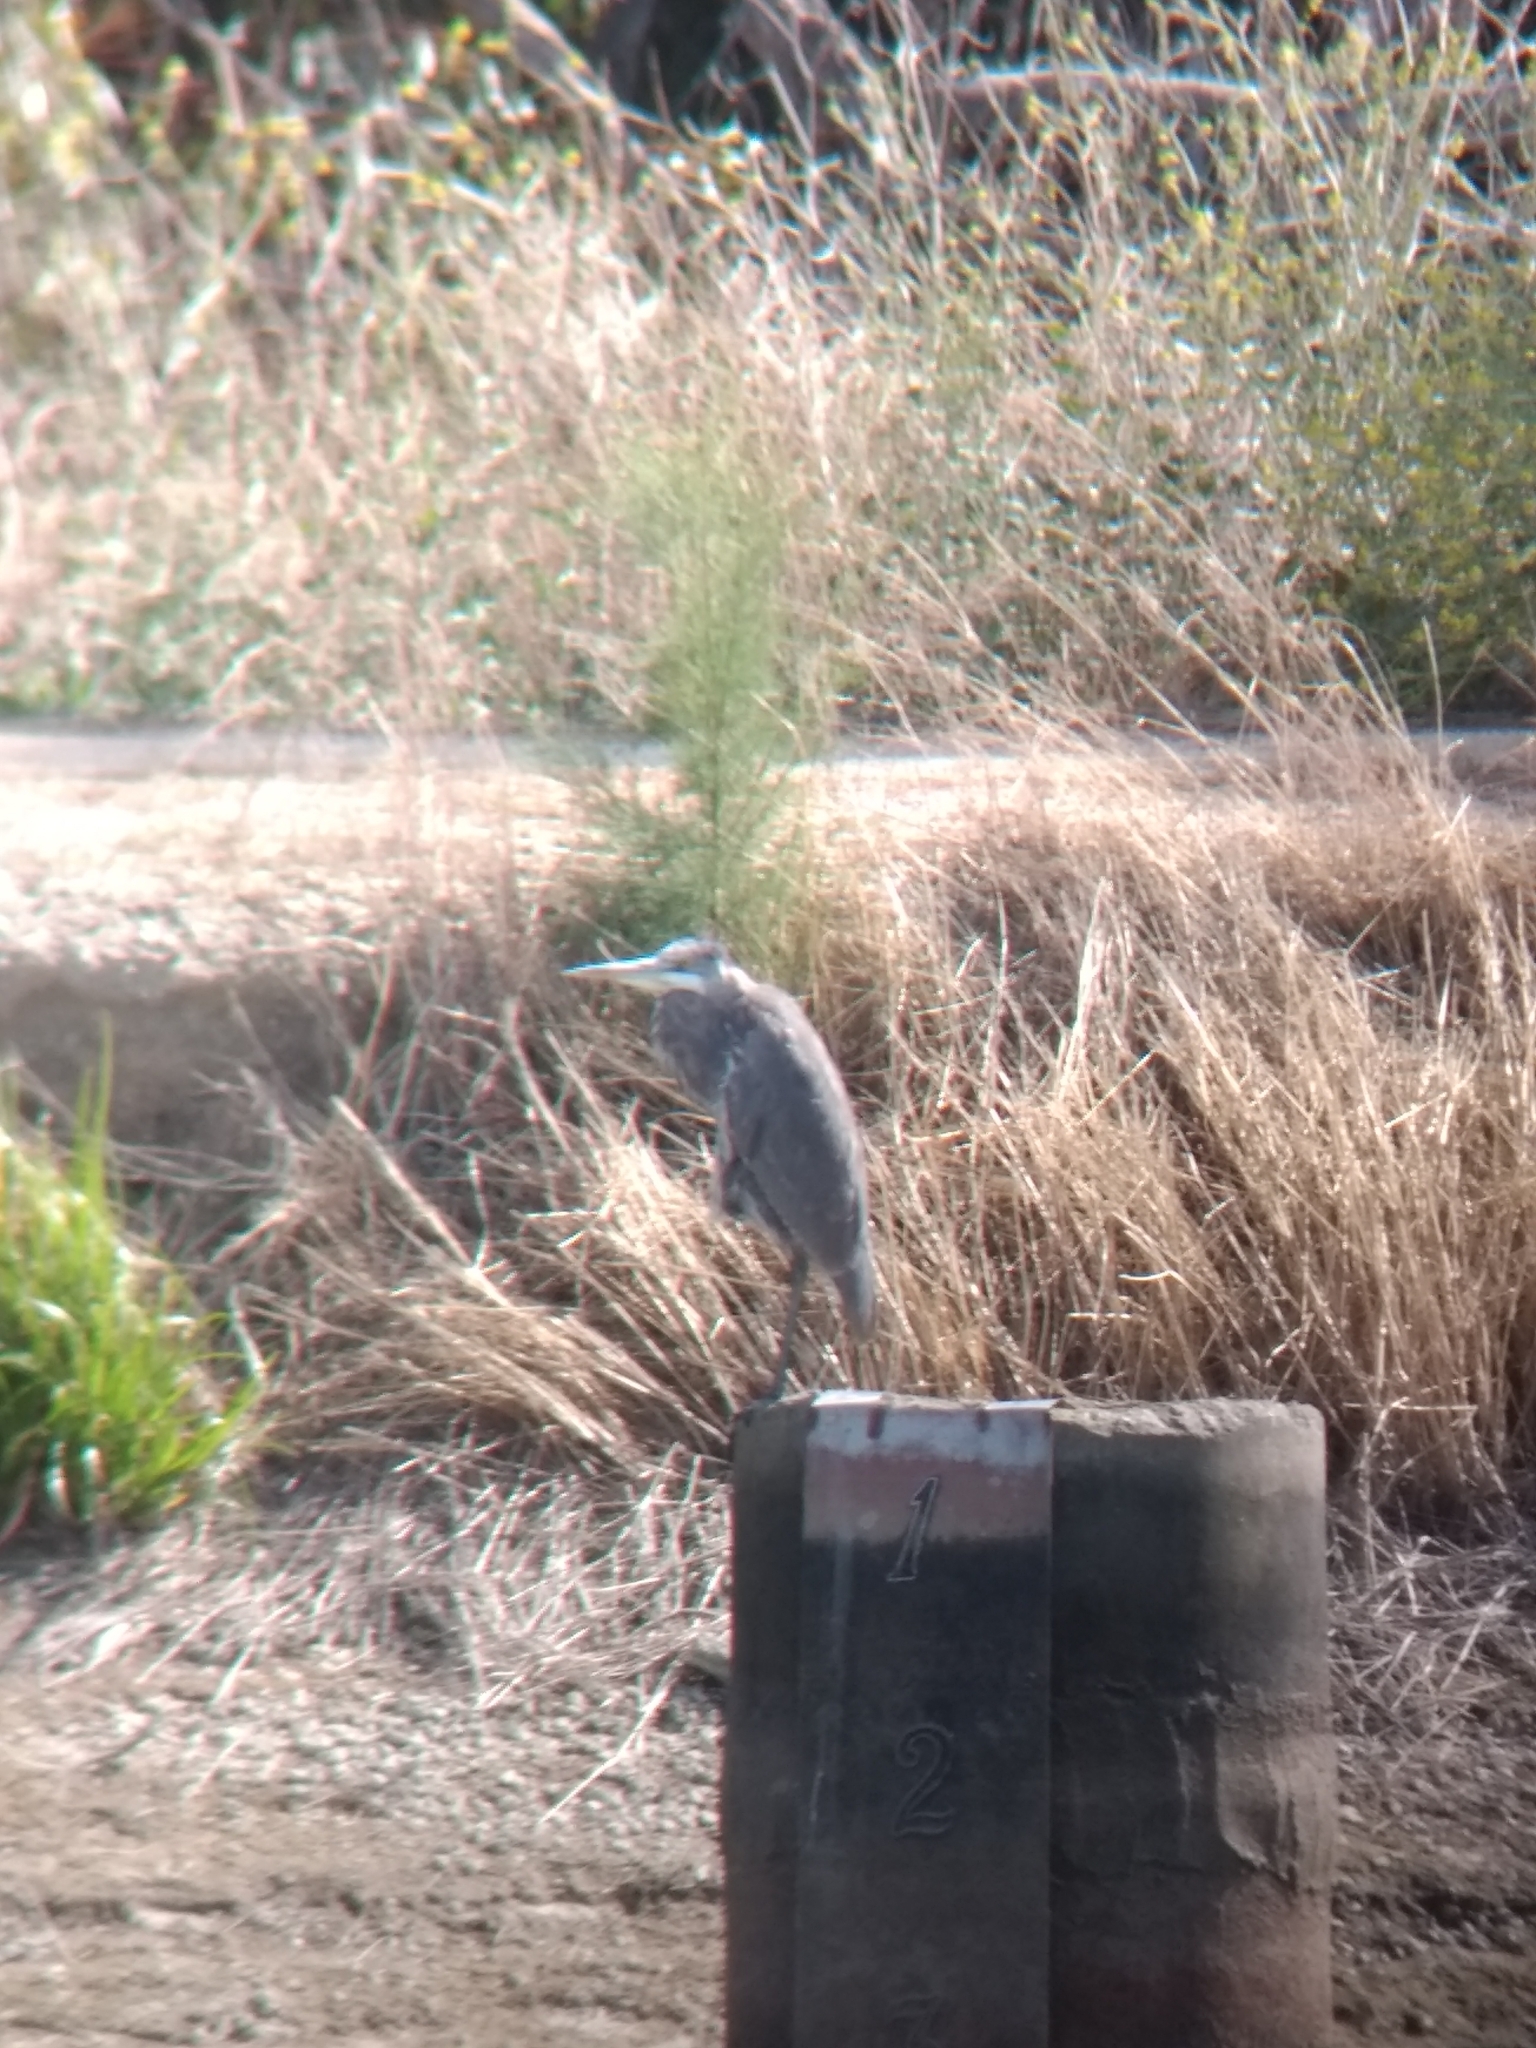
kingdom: Animalia
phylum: Chordata
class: Aves
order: Pelecaniformes
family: Ardeidae
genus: Ardea
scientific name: Ardea herodias
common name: Great blue heron
